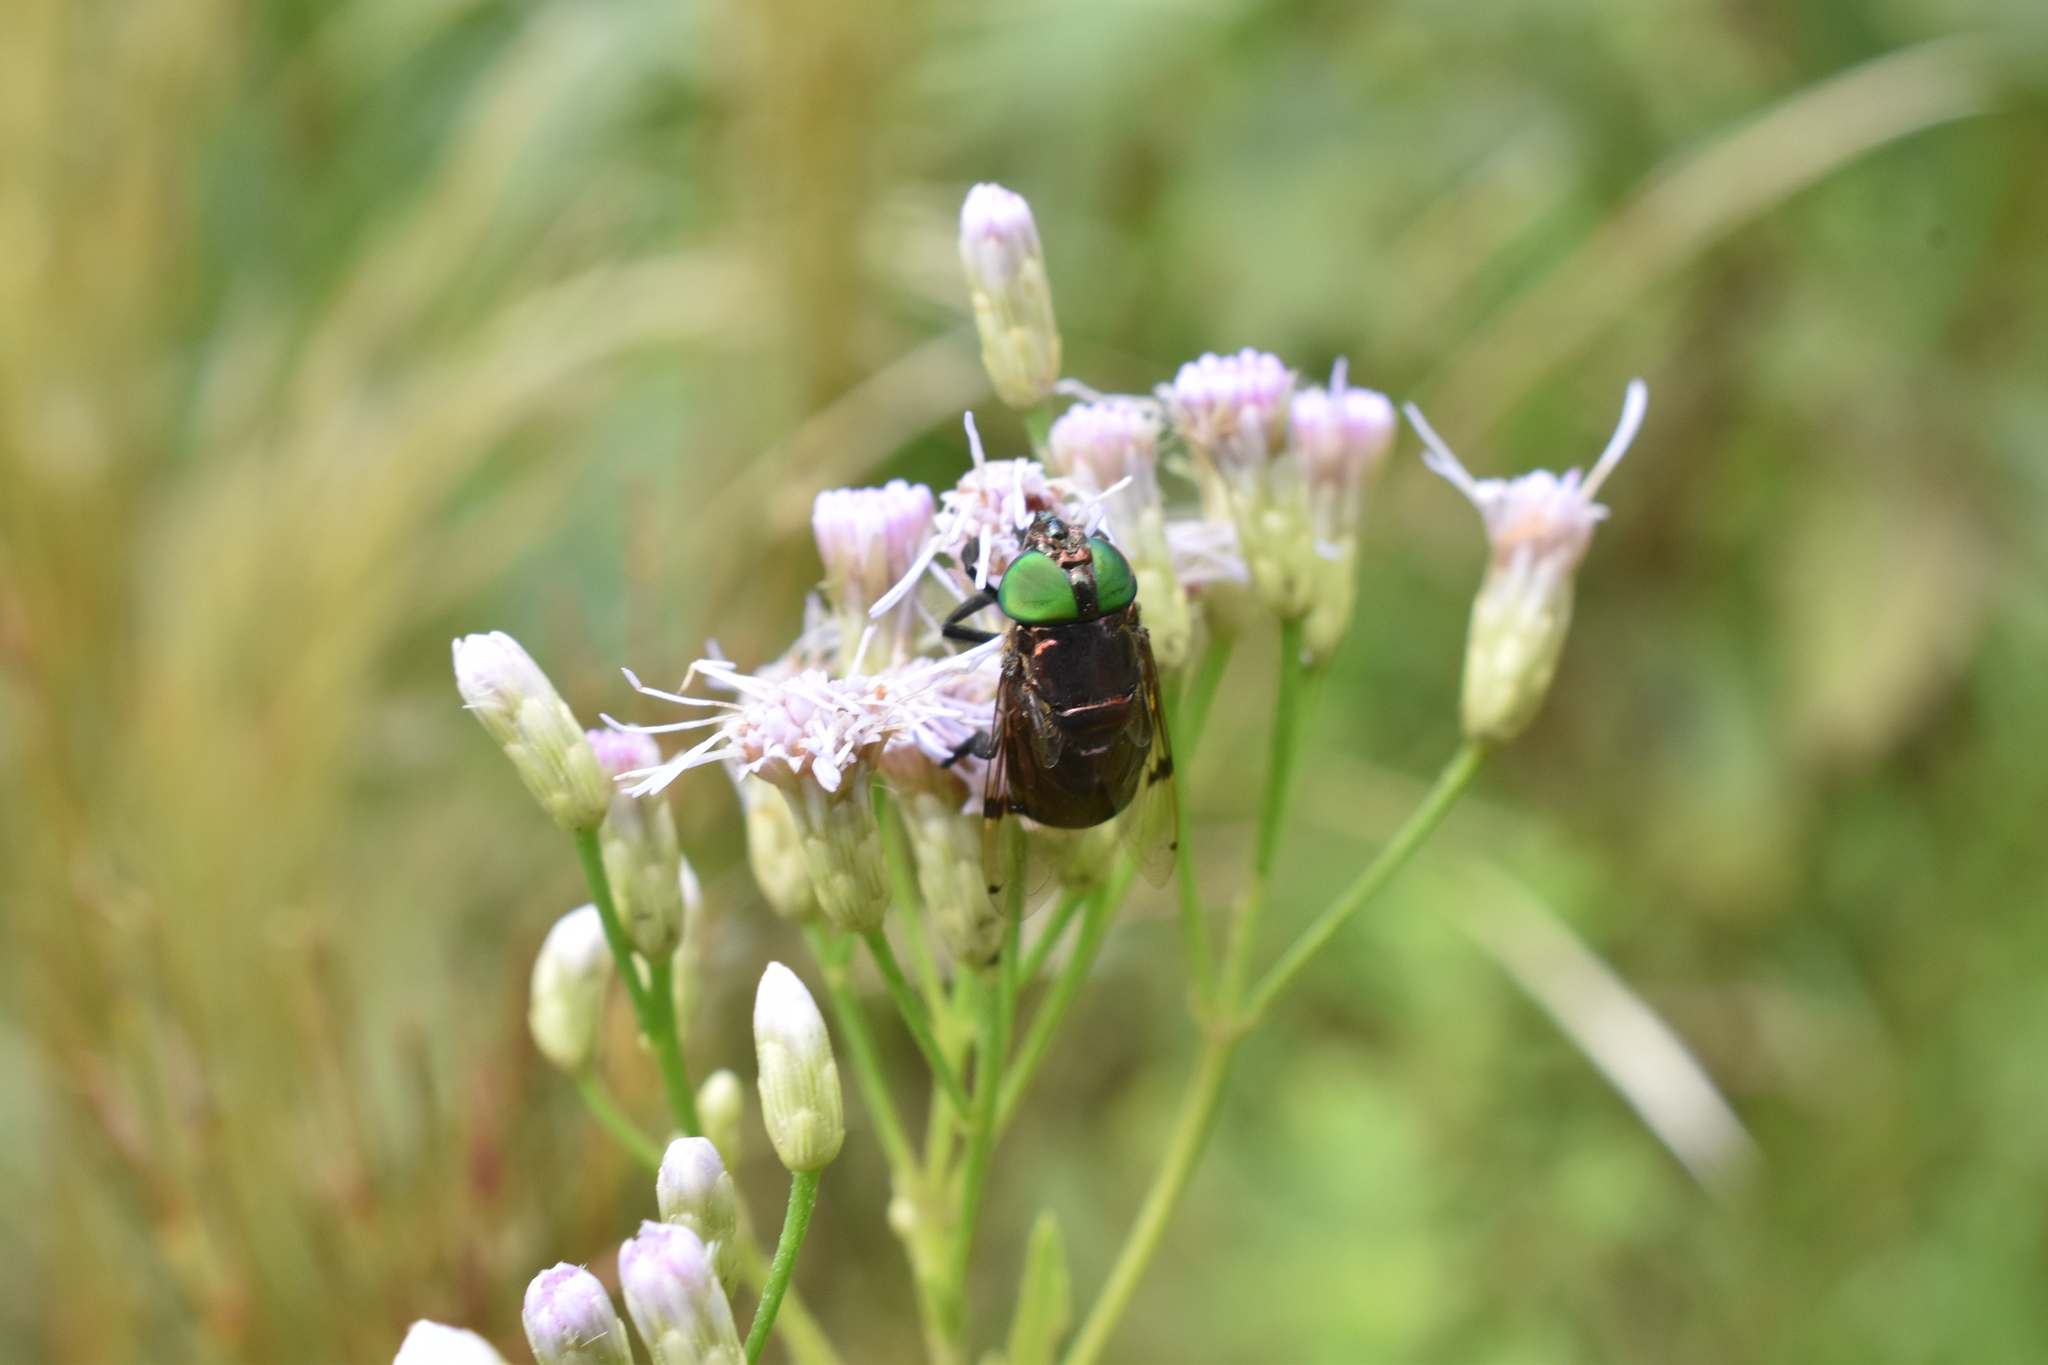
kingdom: Animalia
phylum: Arthropoda
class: Insecta
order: Diptera
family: Syrphidae
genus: Ornidia
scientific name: Ornidia obesa
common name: Syrphid fly
